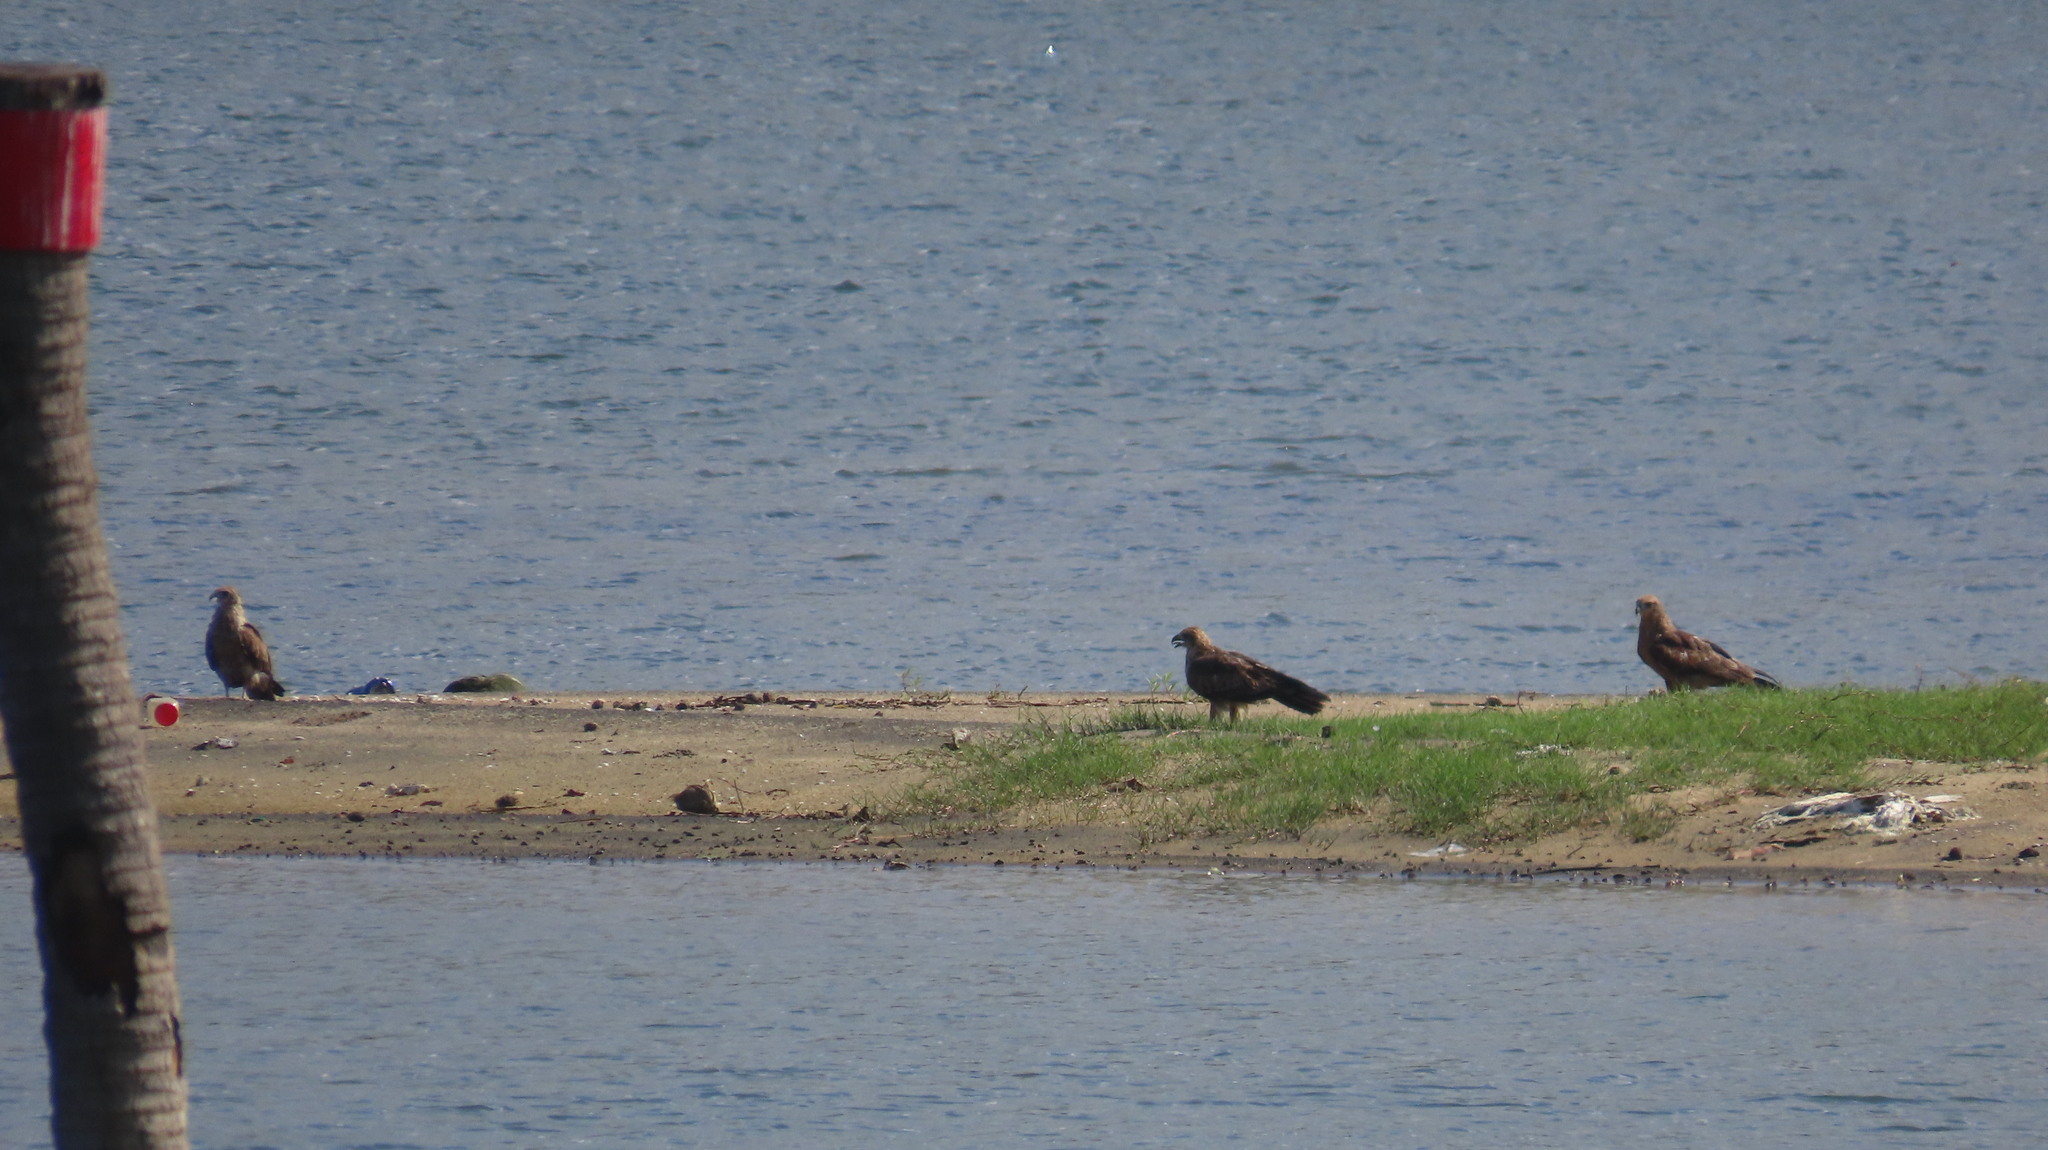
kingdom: Animalia
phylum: Chordata
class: Aves
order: Accipitriformes
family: Accipitridae
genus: Haliastur
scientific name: Haliastur indus
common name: Brahminy kite
